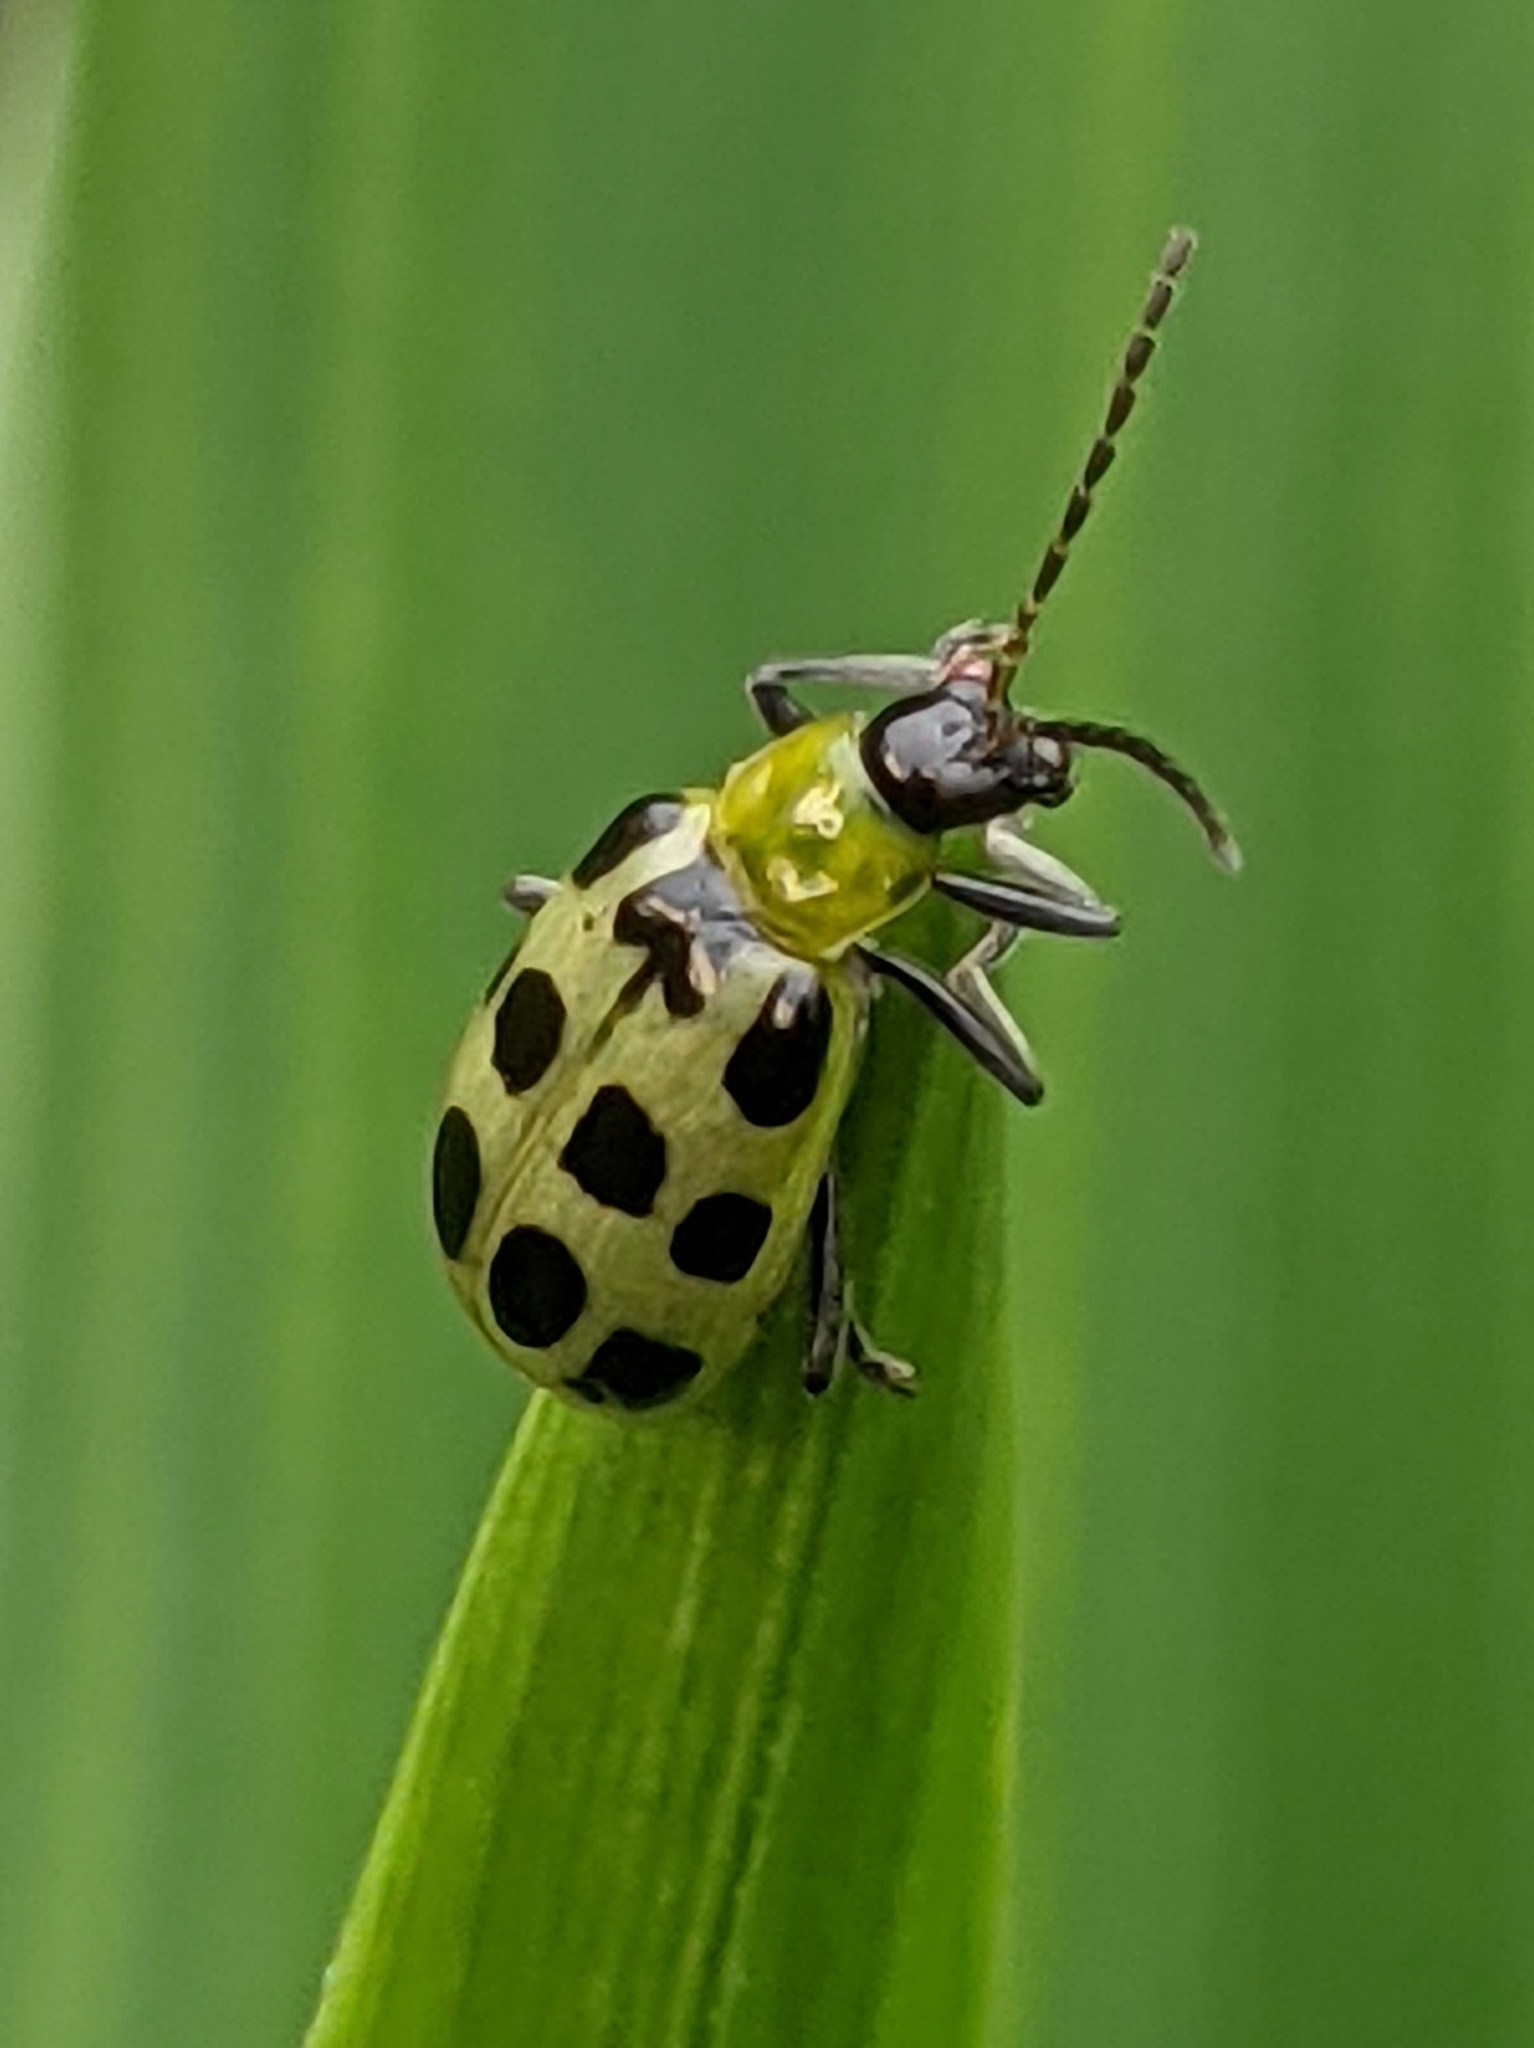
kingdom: Animalia
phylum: Arthropoda
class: Insecta
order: Coleoptera
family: Chrysomelidae
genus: Diabrotica
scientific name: Diabrotica undecimpunctata
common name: Spotted cucumber beetle
